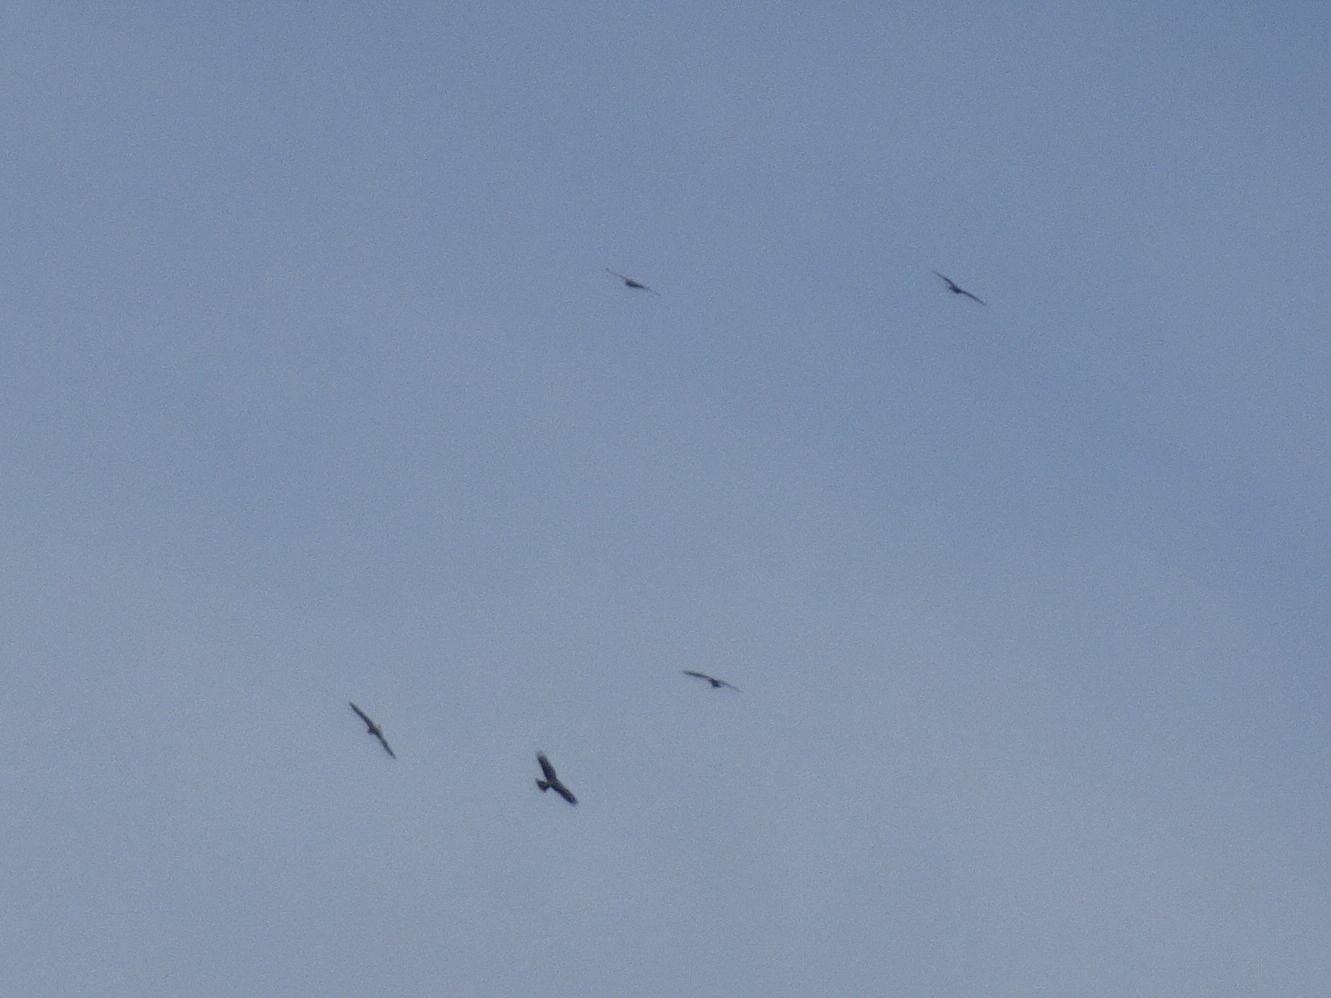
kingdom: Animalia
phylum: Chordata
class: Aves
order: Accipitriformes
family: Accipitridae
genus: Milvus
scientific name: Milvus migrans
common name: Black kite
